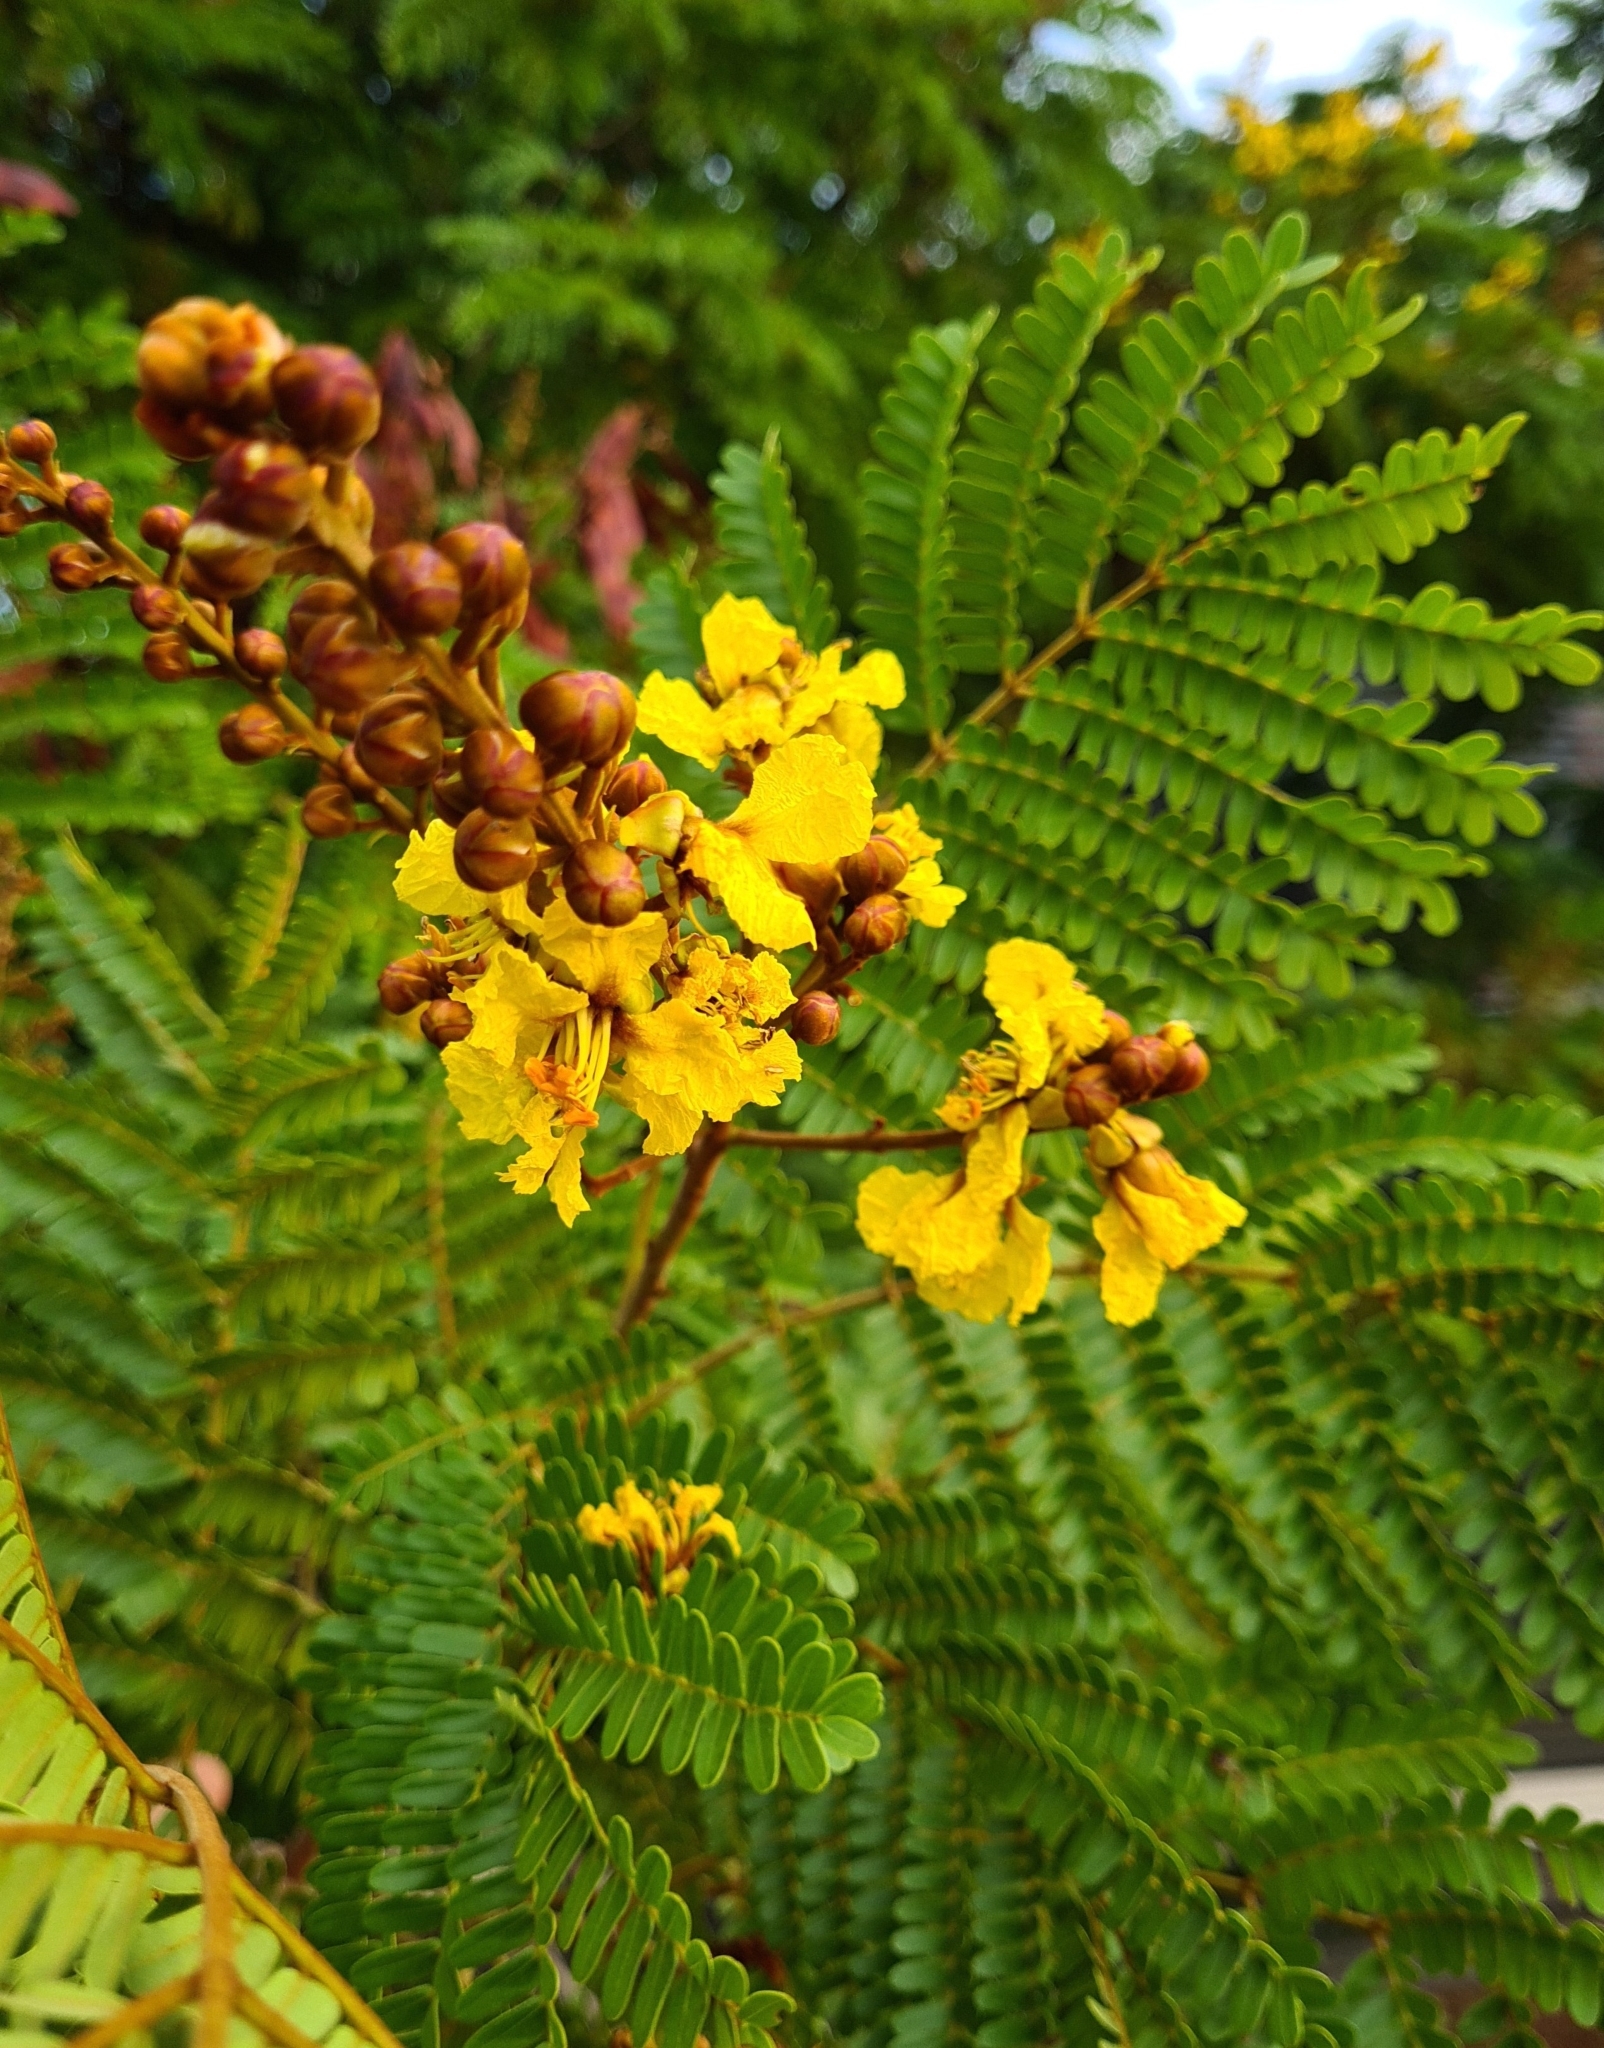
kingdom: Plantae
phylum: Tracheophyta
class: Magnoliopsida
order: Fabales
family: Fabaceae
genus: Peltophorum
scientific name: Peltophorum pterocarpum
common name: Yellow flame
